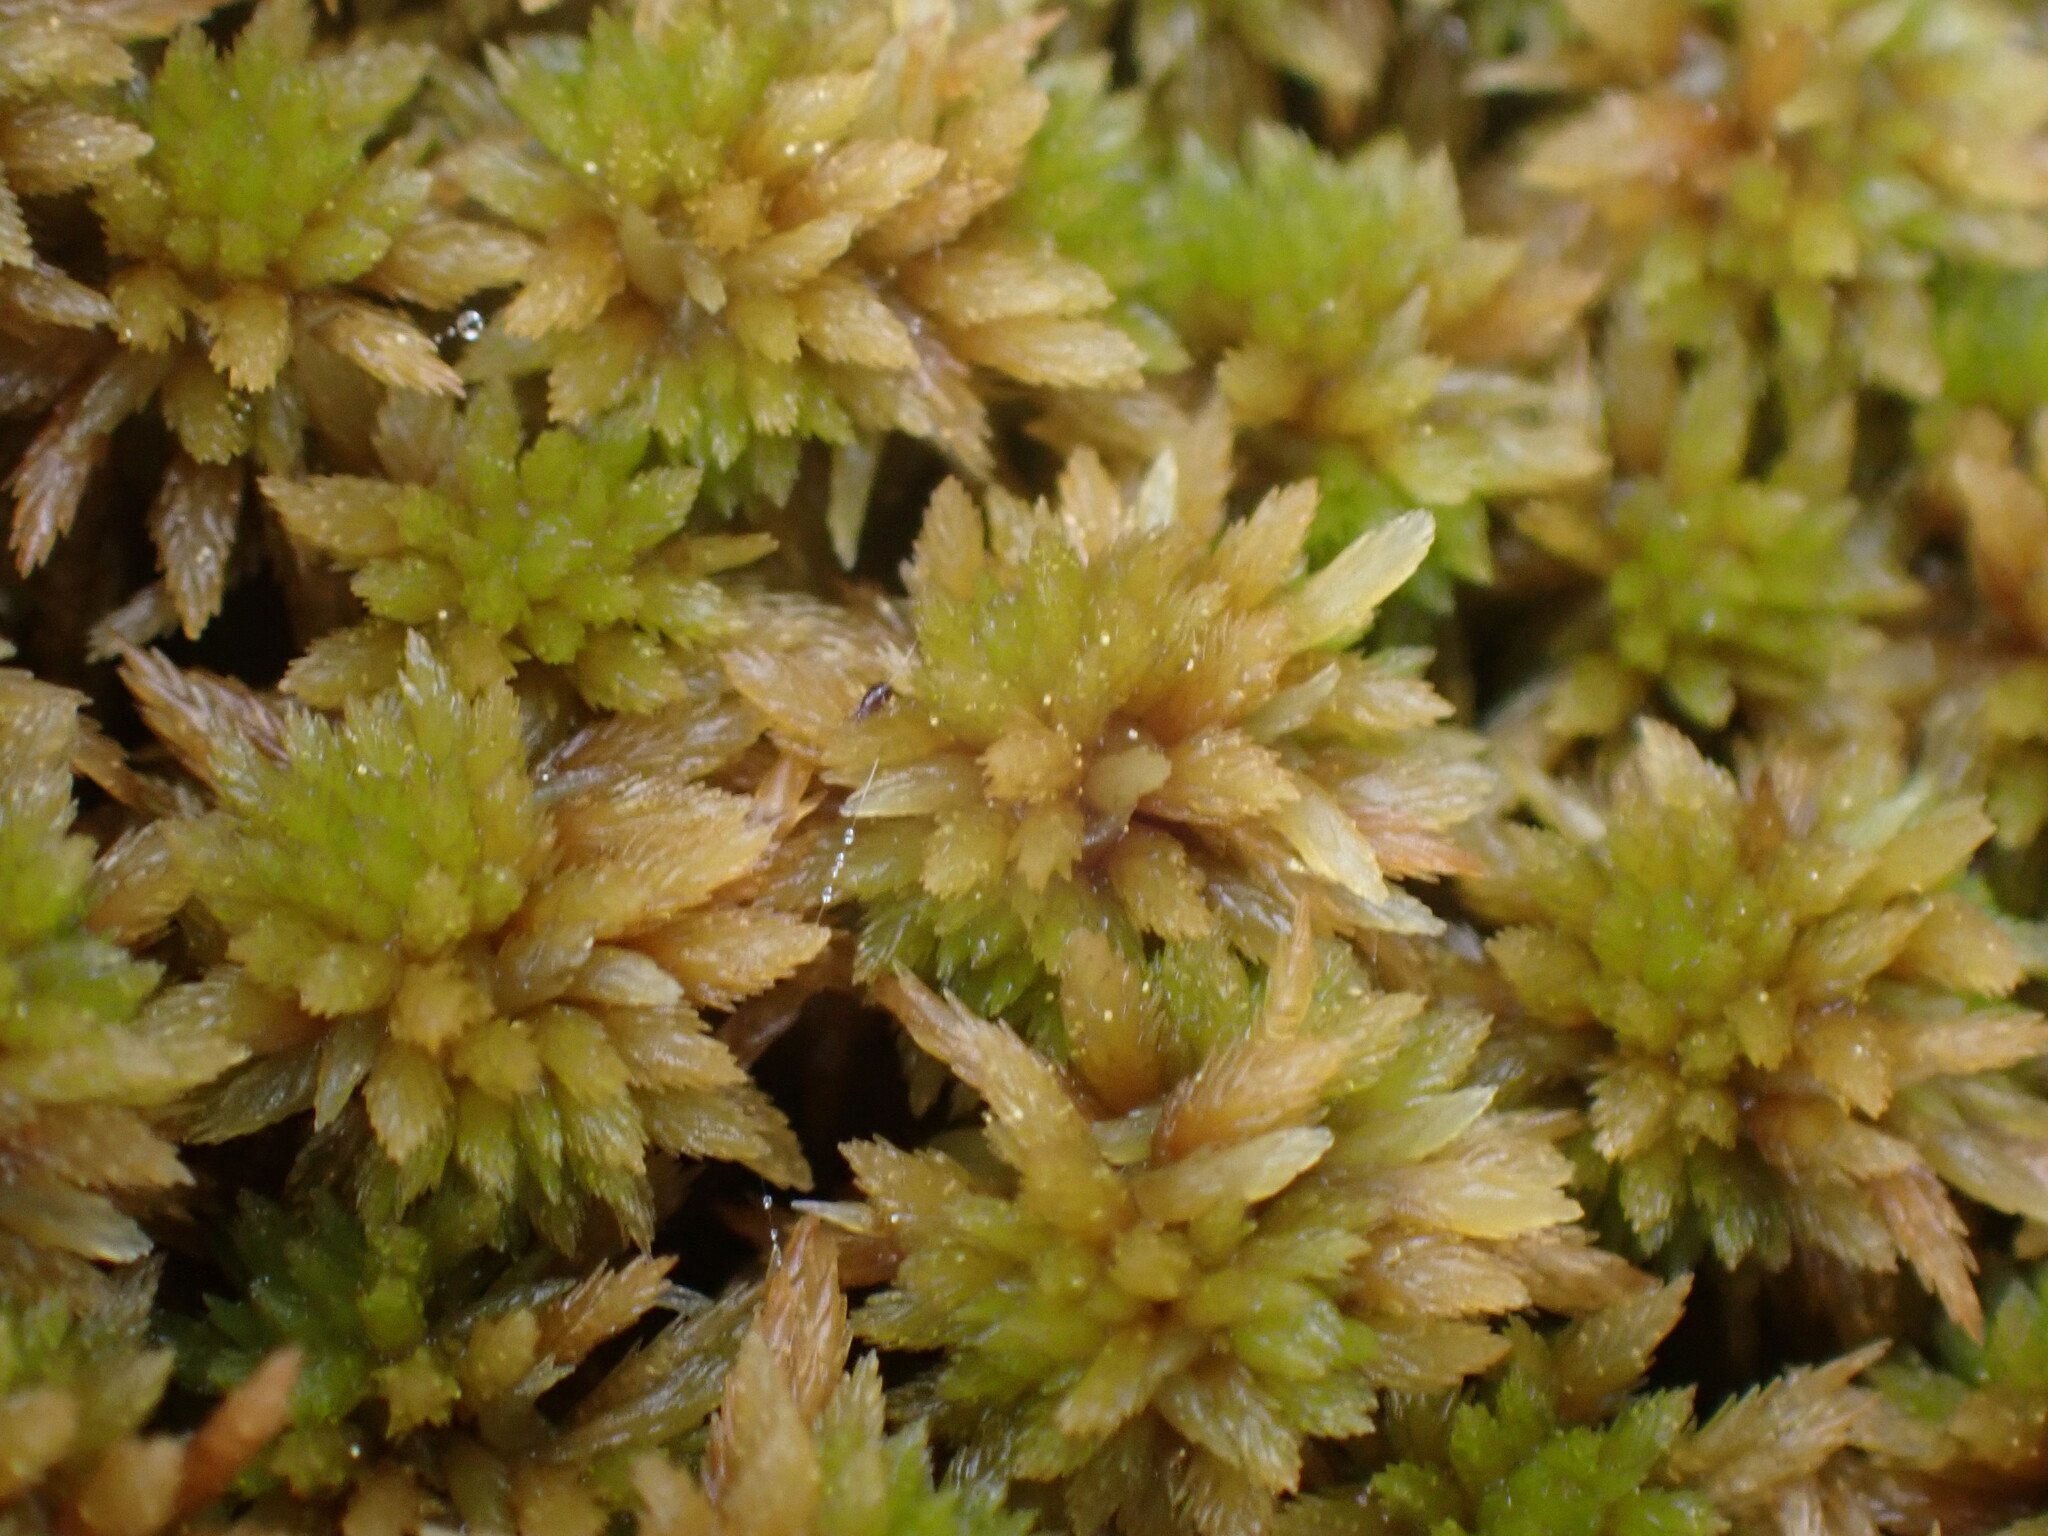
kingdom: Plantae
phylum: Bryophyta
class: Sphagnopsida
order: Sphagnales
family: Sphagnaceae
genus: Sphagnum
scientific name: Sphagnum fuscum
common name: Brown peat moss
